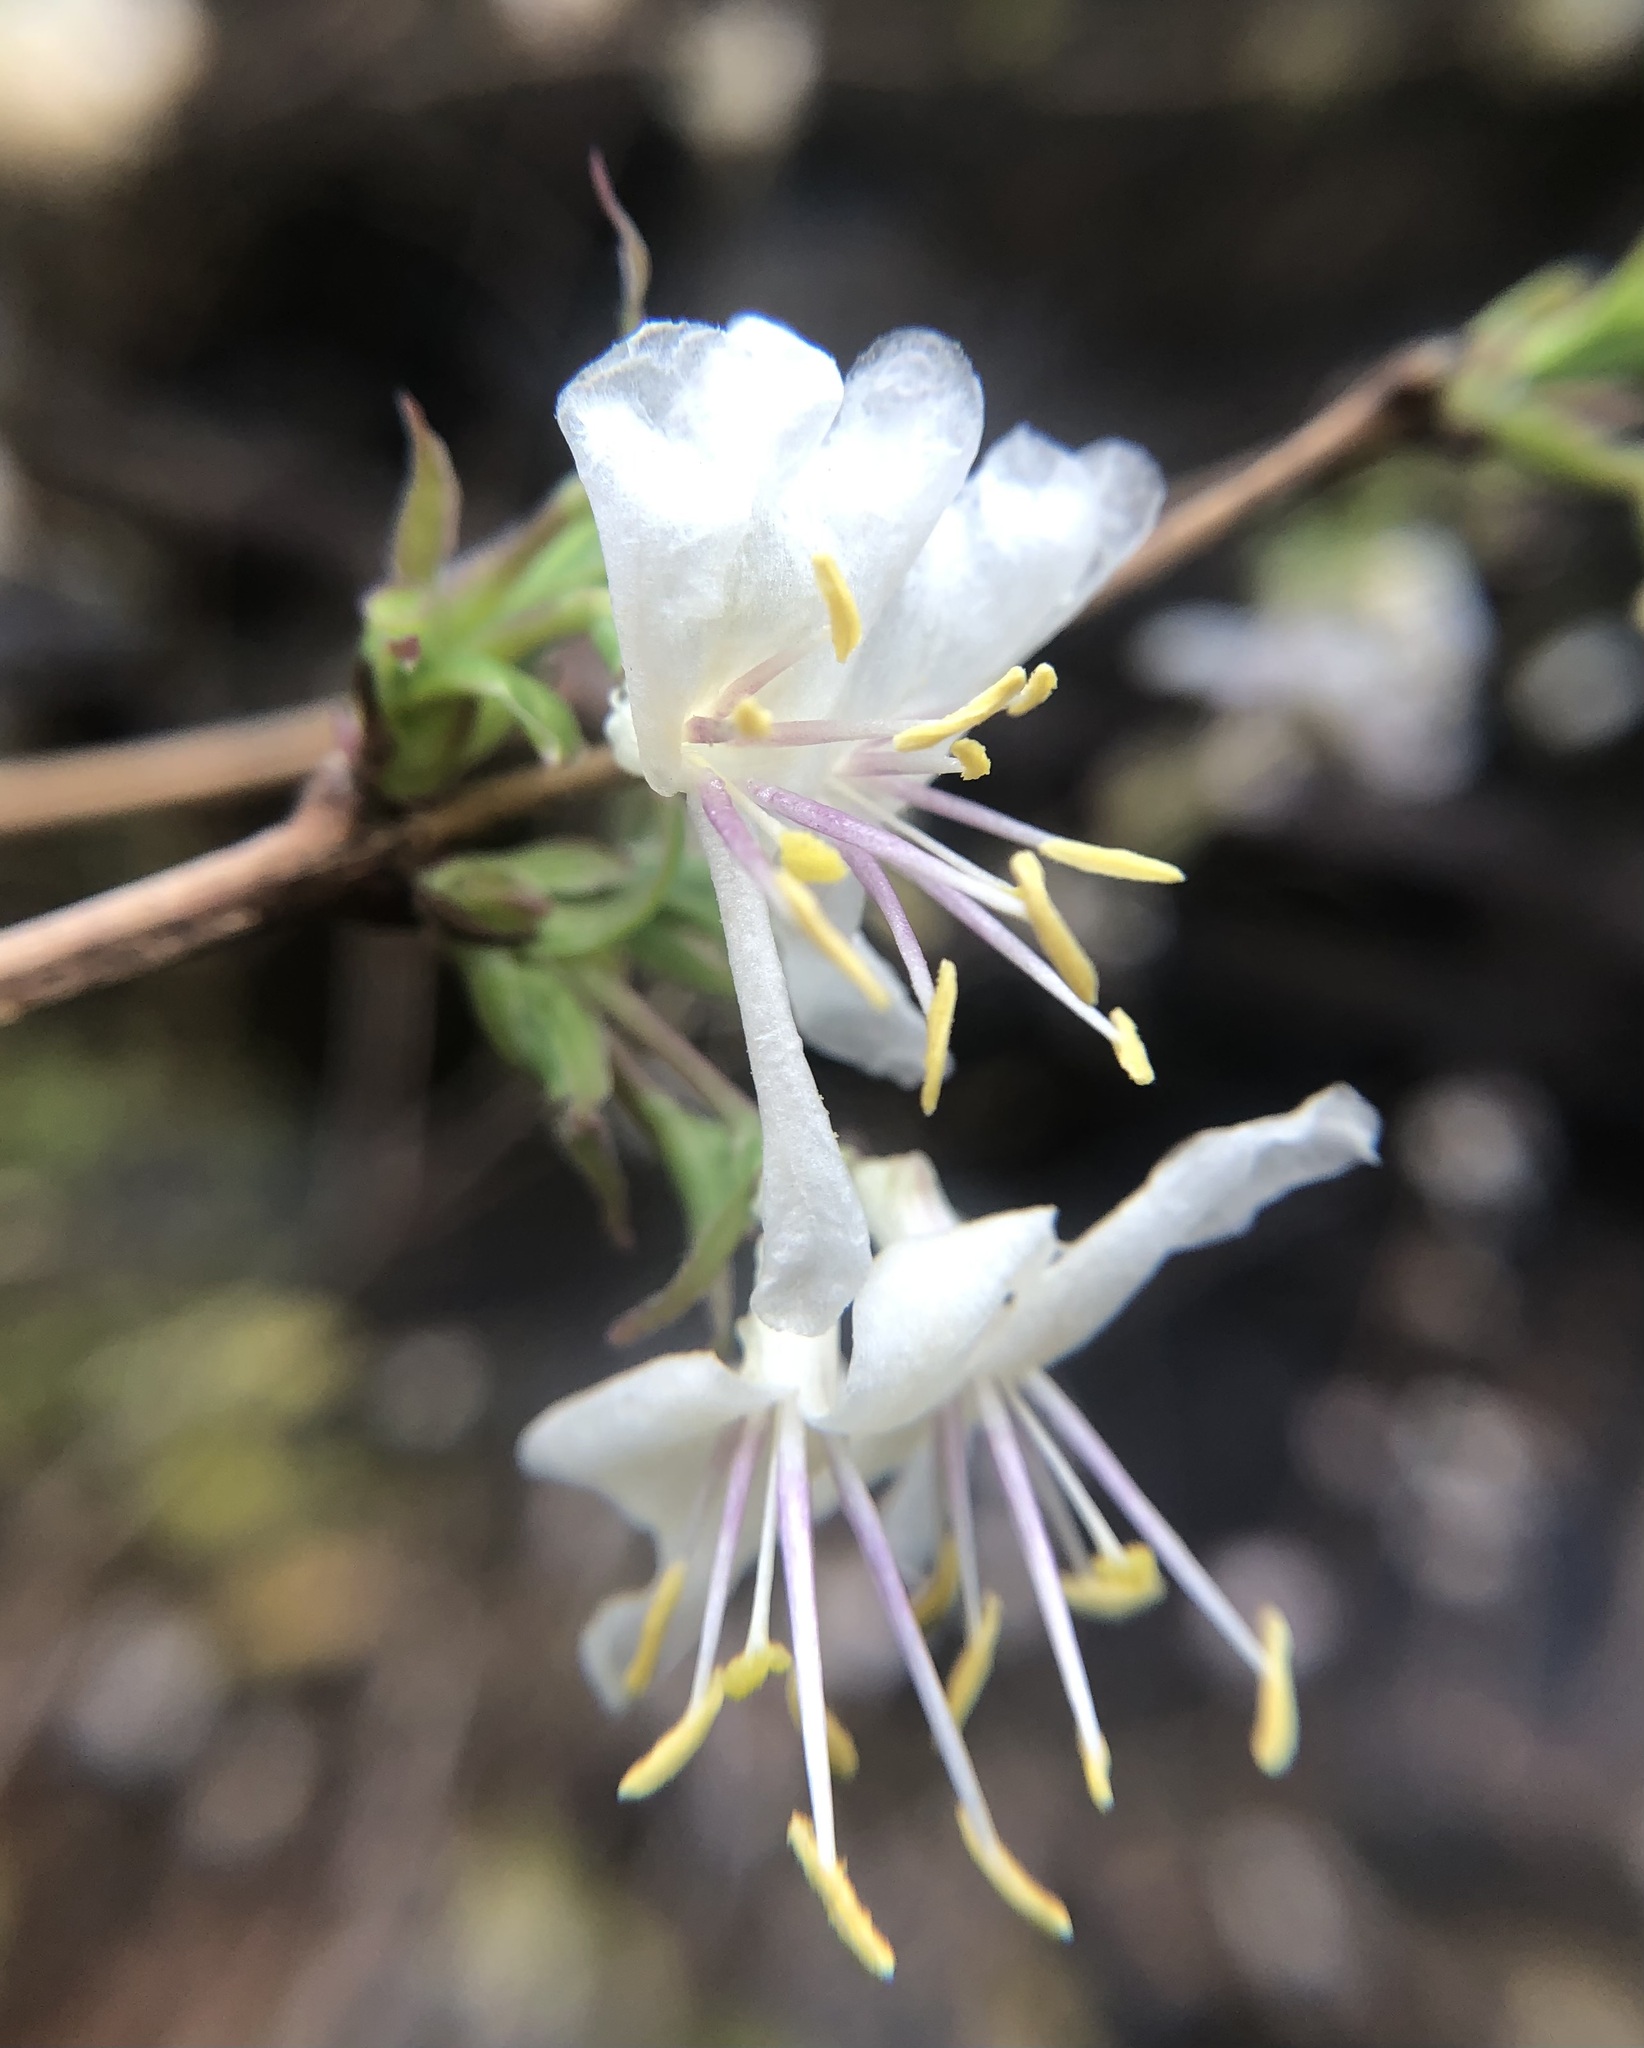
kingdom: Plantae
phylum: Tracheophyta
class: Magnoliopsida
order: Dipsacales
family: Caprifoliaceae
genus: Lonicera
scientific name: Lonicera fragrantissima
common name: Fragrant honeysuckle
